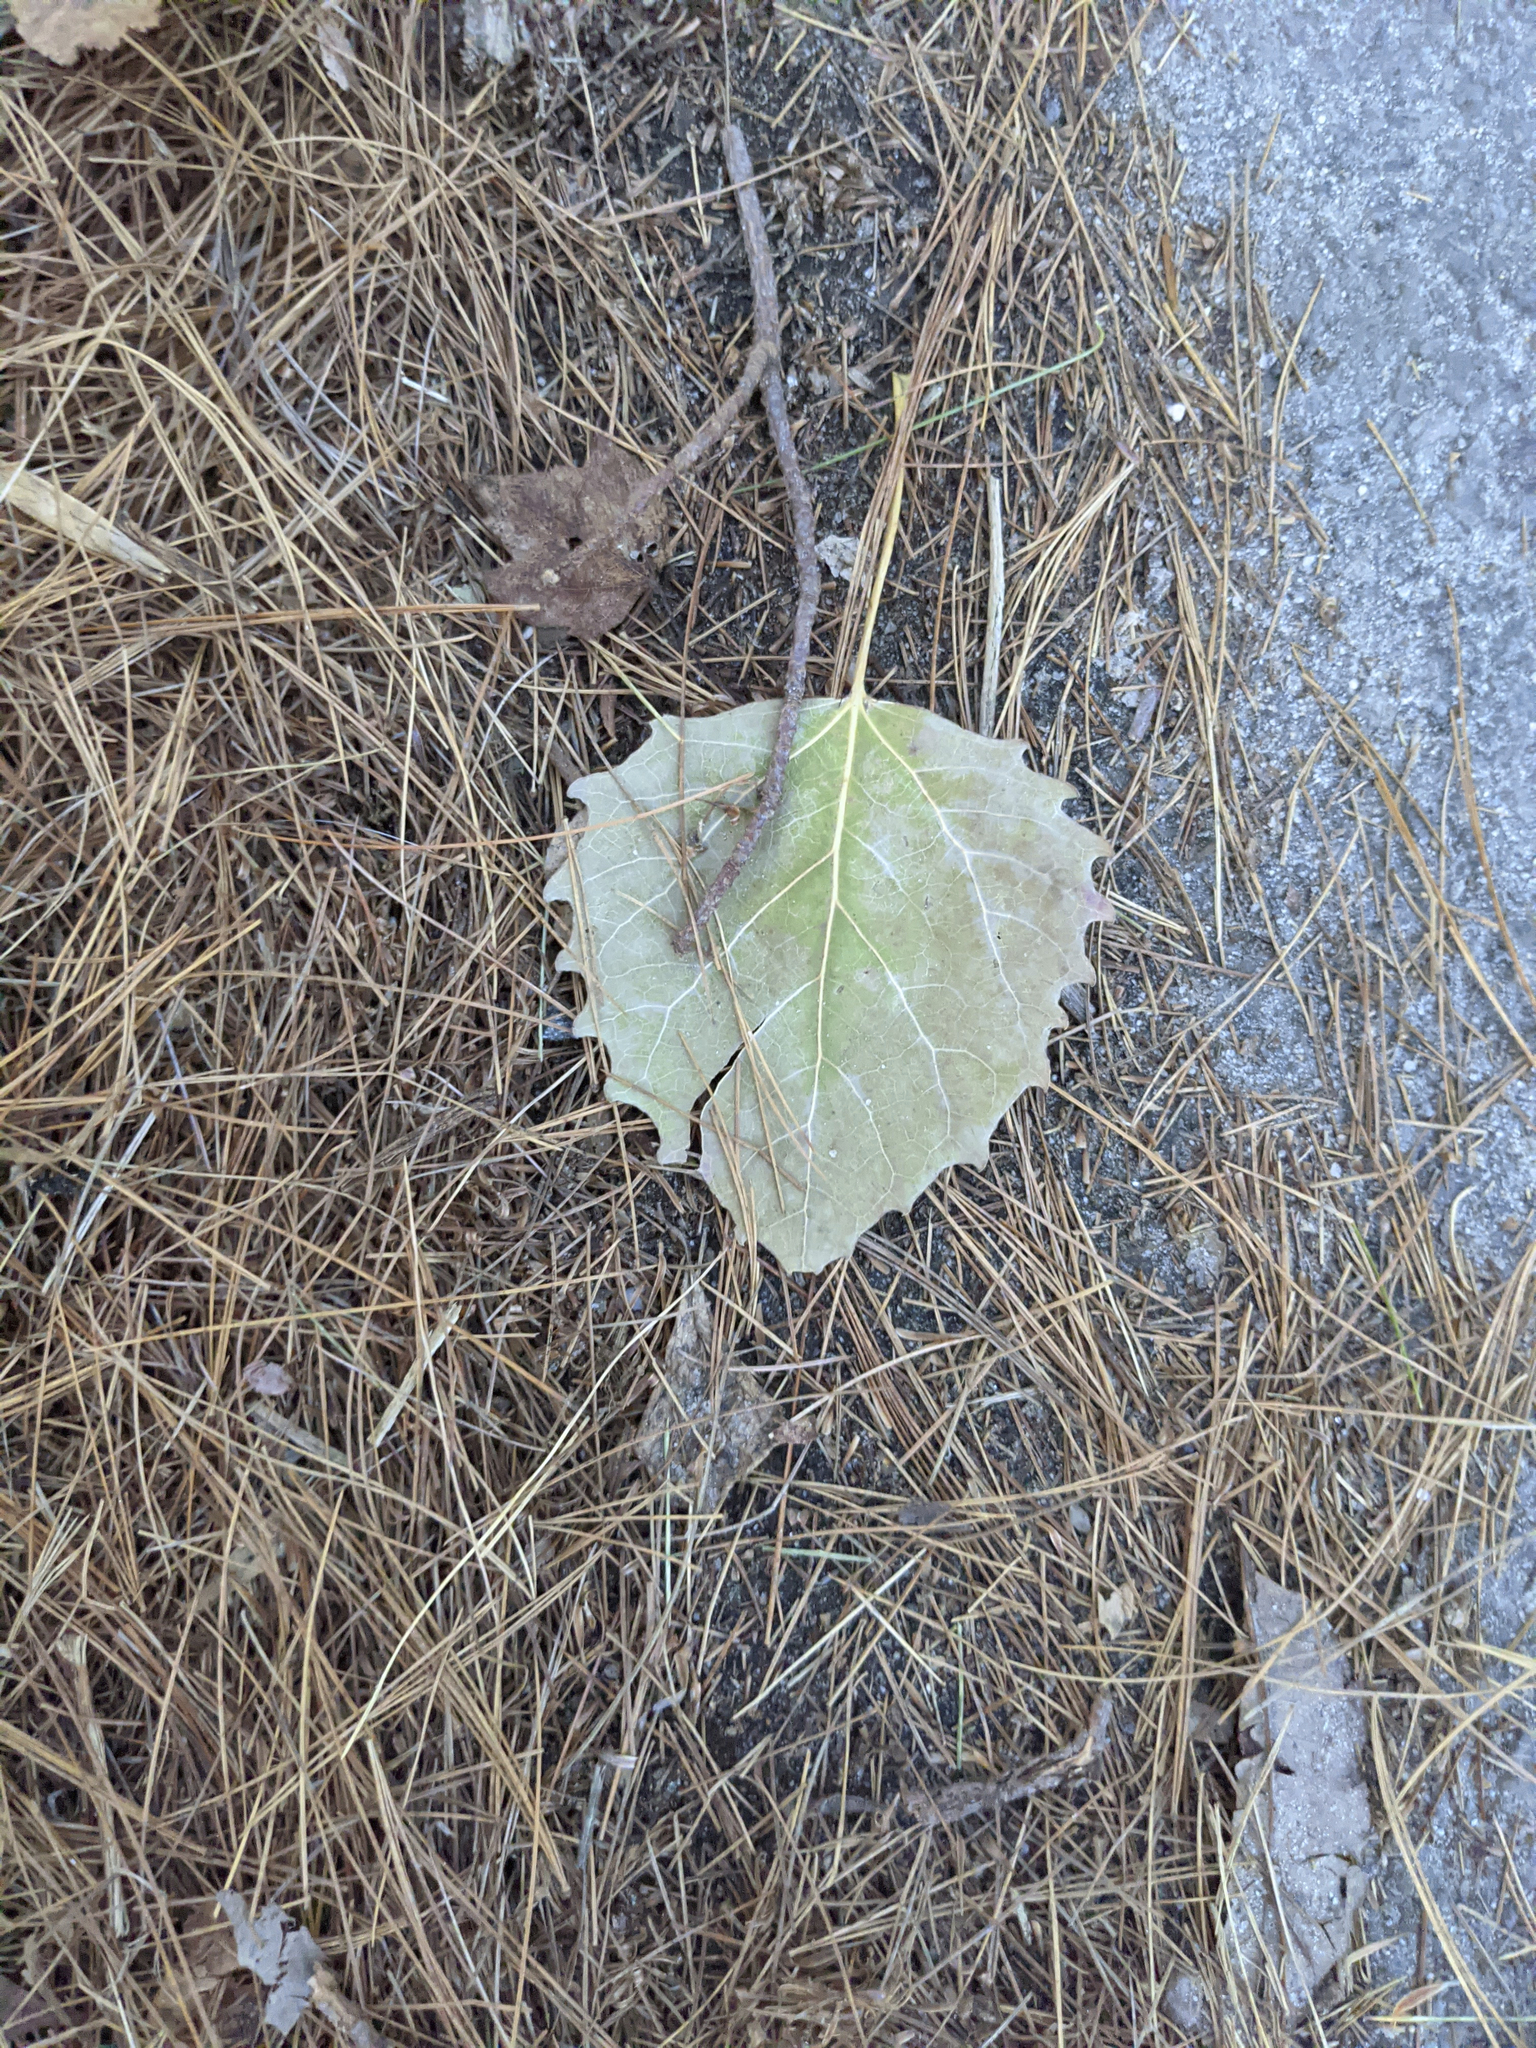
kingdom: Plantae
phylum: Tracheophyta
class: Magnoliopsida
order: Malpighiales
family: Salicaceae
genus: Populus
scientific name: Populus grandidentata
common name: Bigtooth aspen
